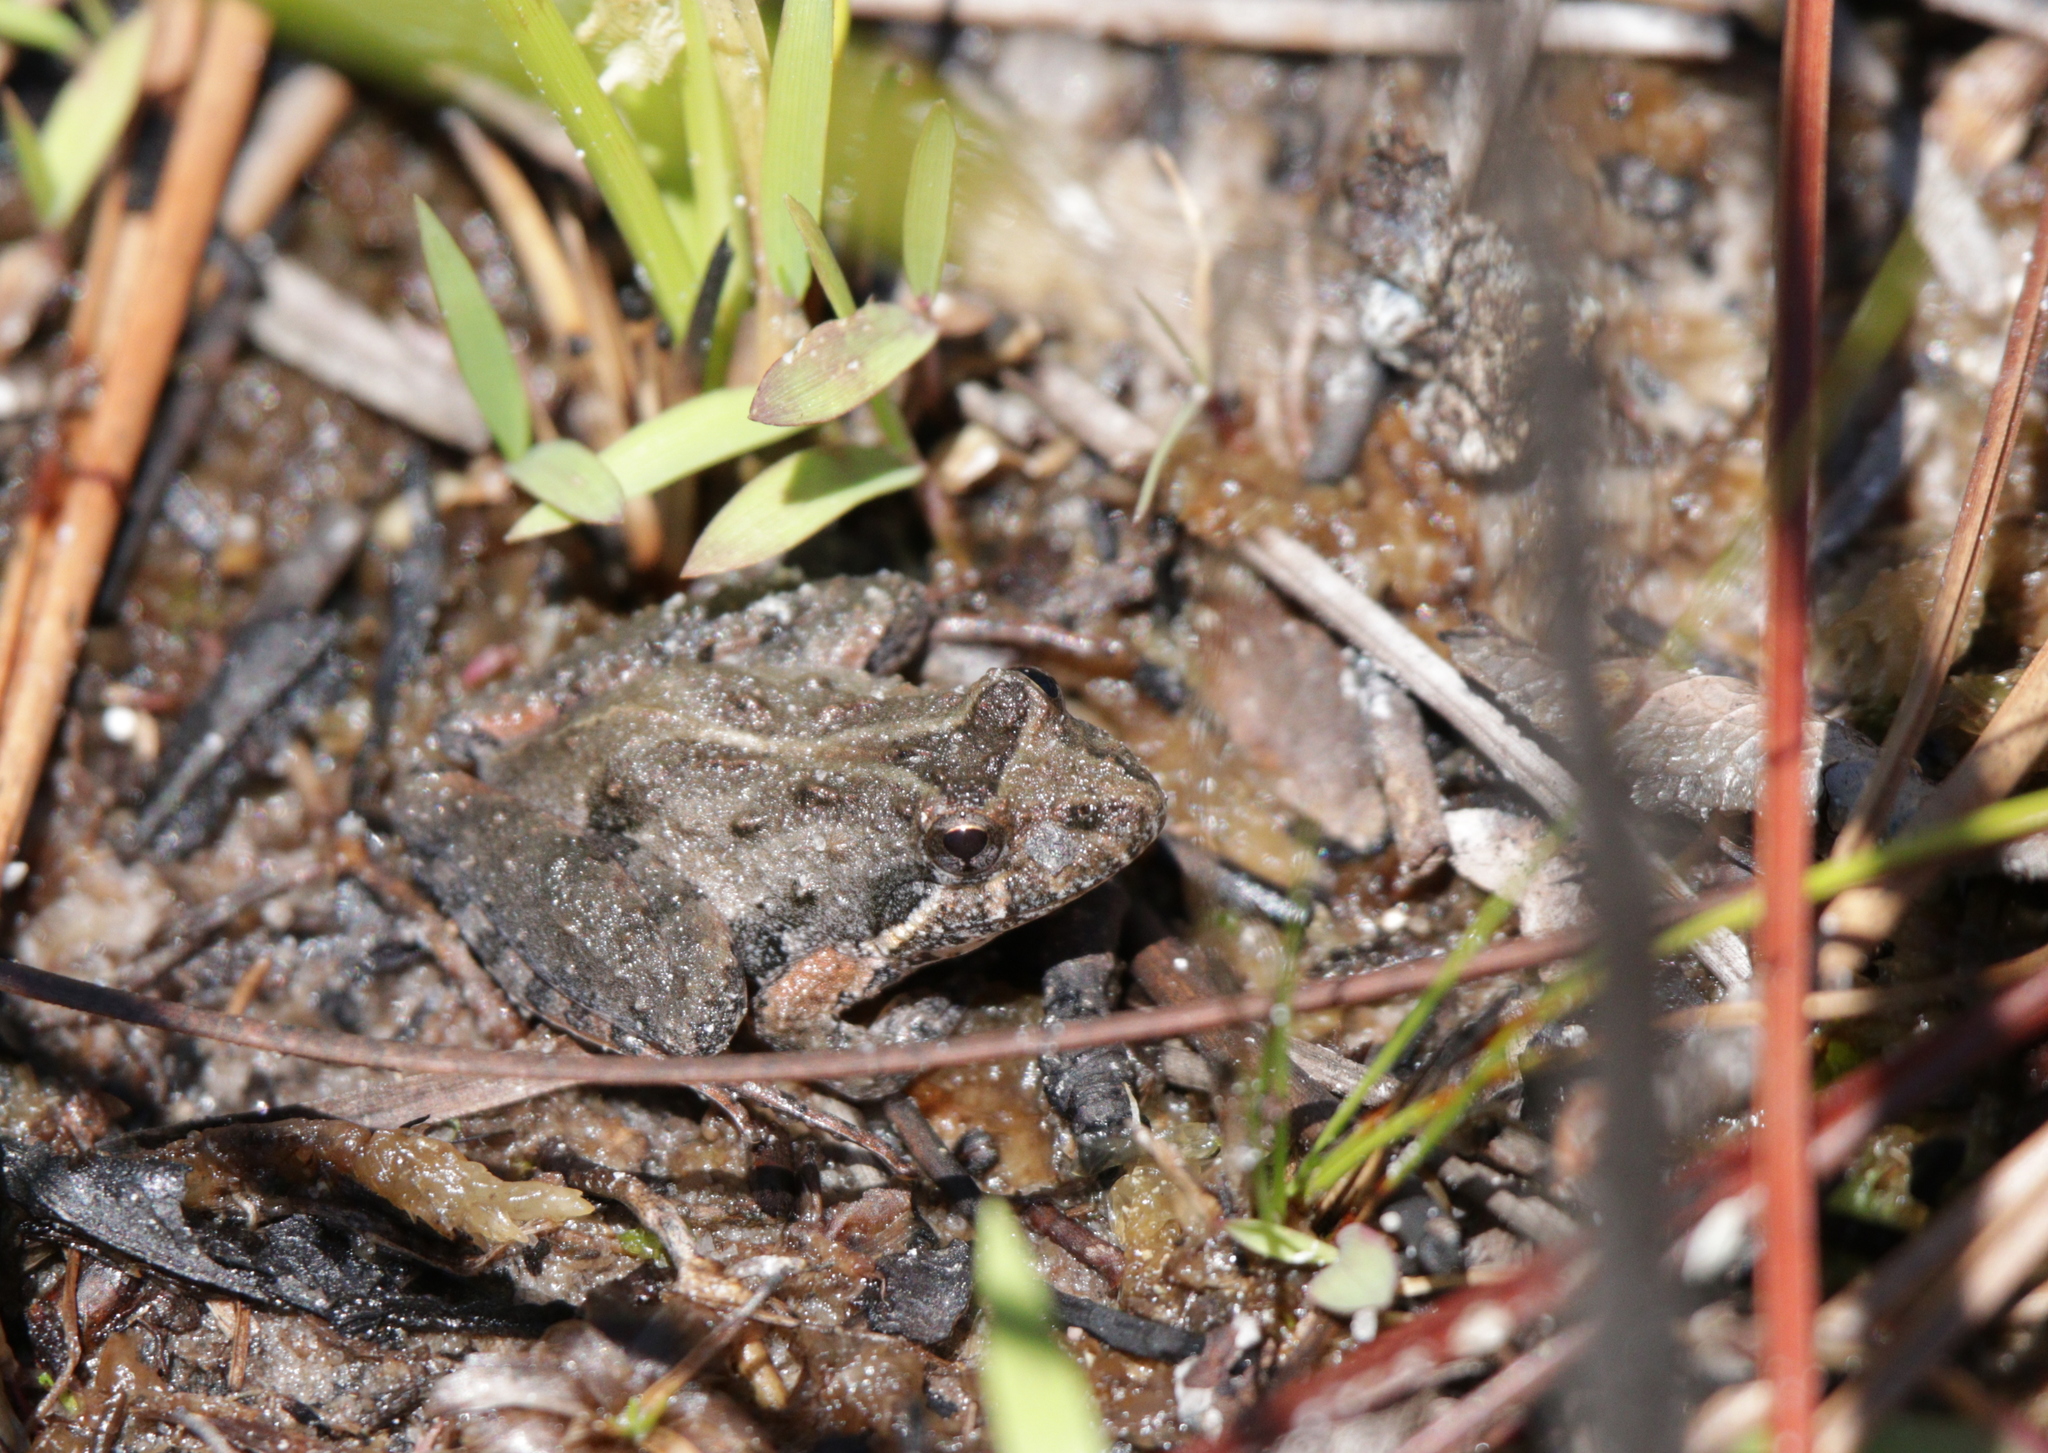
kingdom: Animalia
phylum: Chordata
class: Amphibia
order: Anura
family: Hylidae
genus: Acris
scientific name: Acris gryllus
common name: Southern cricket frog
